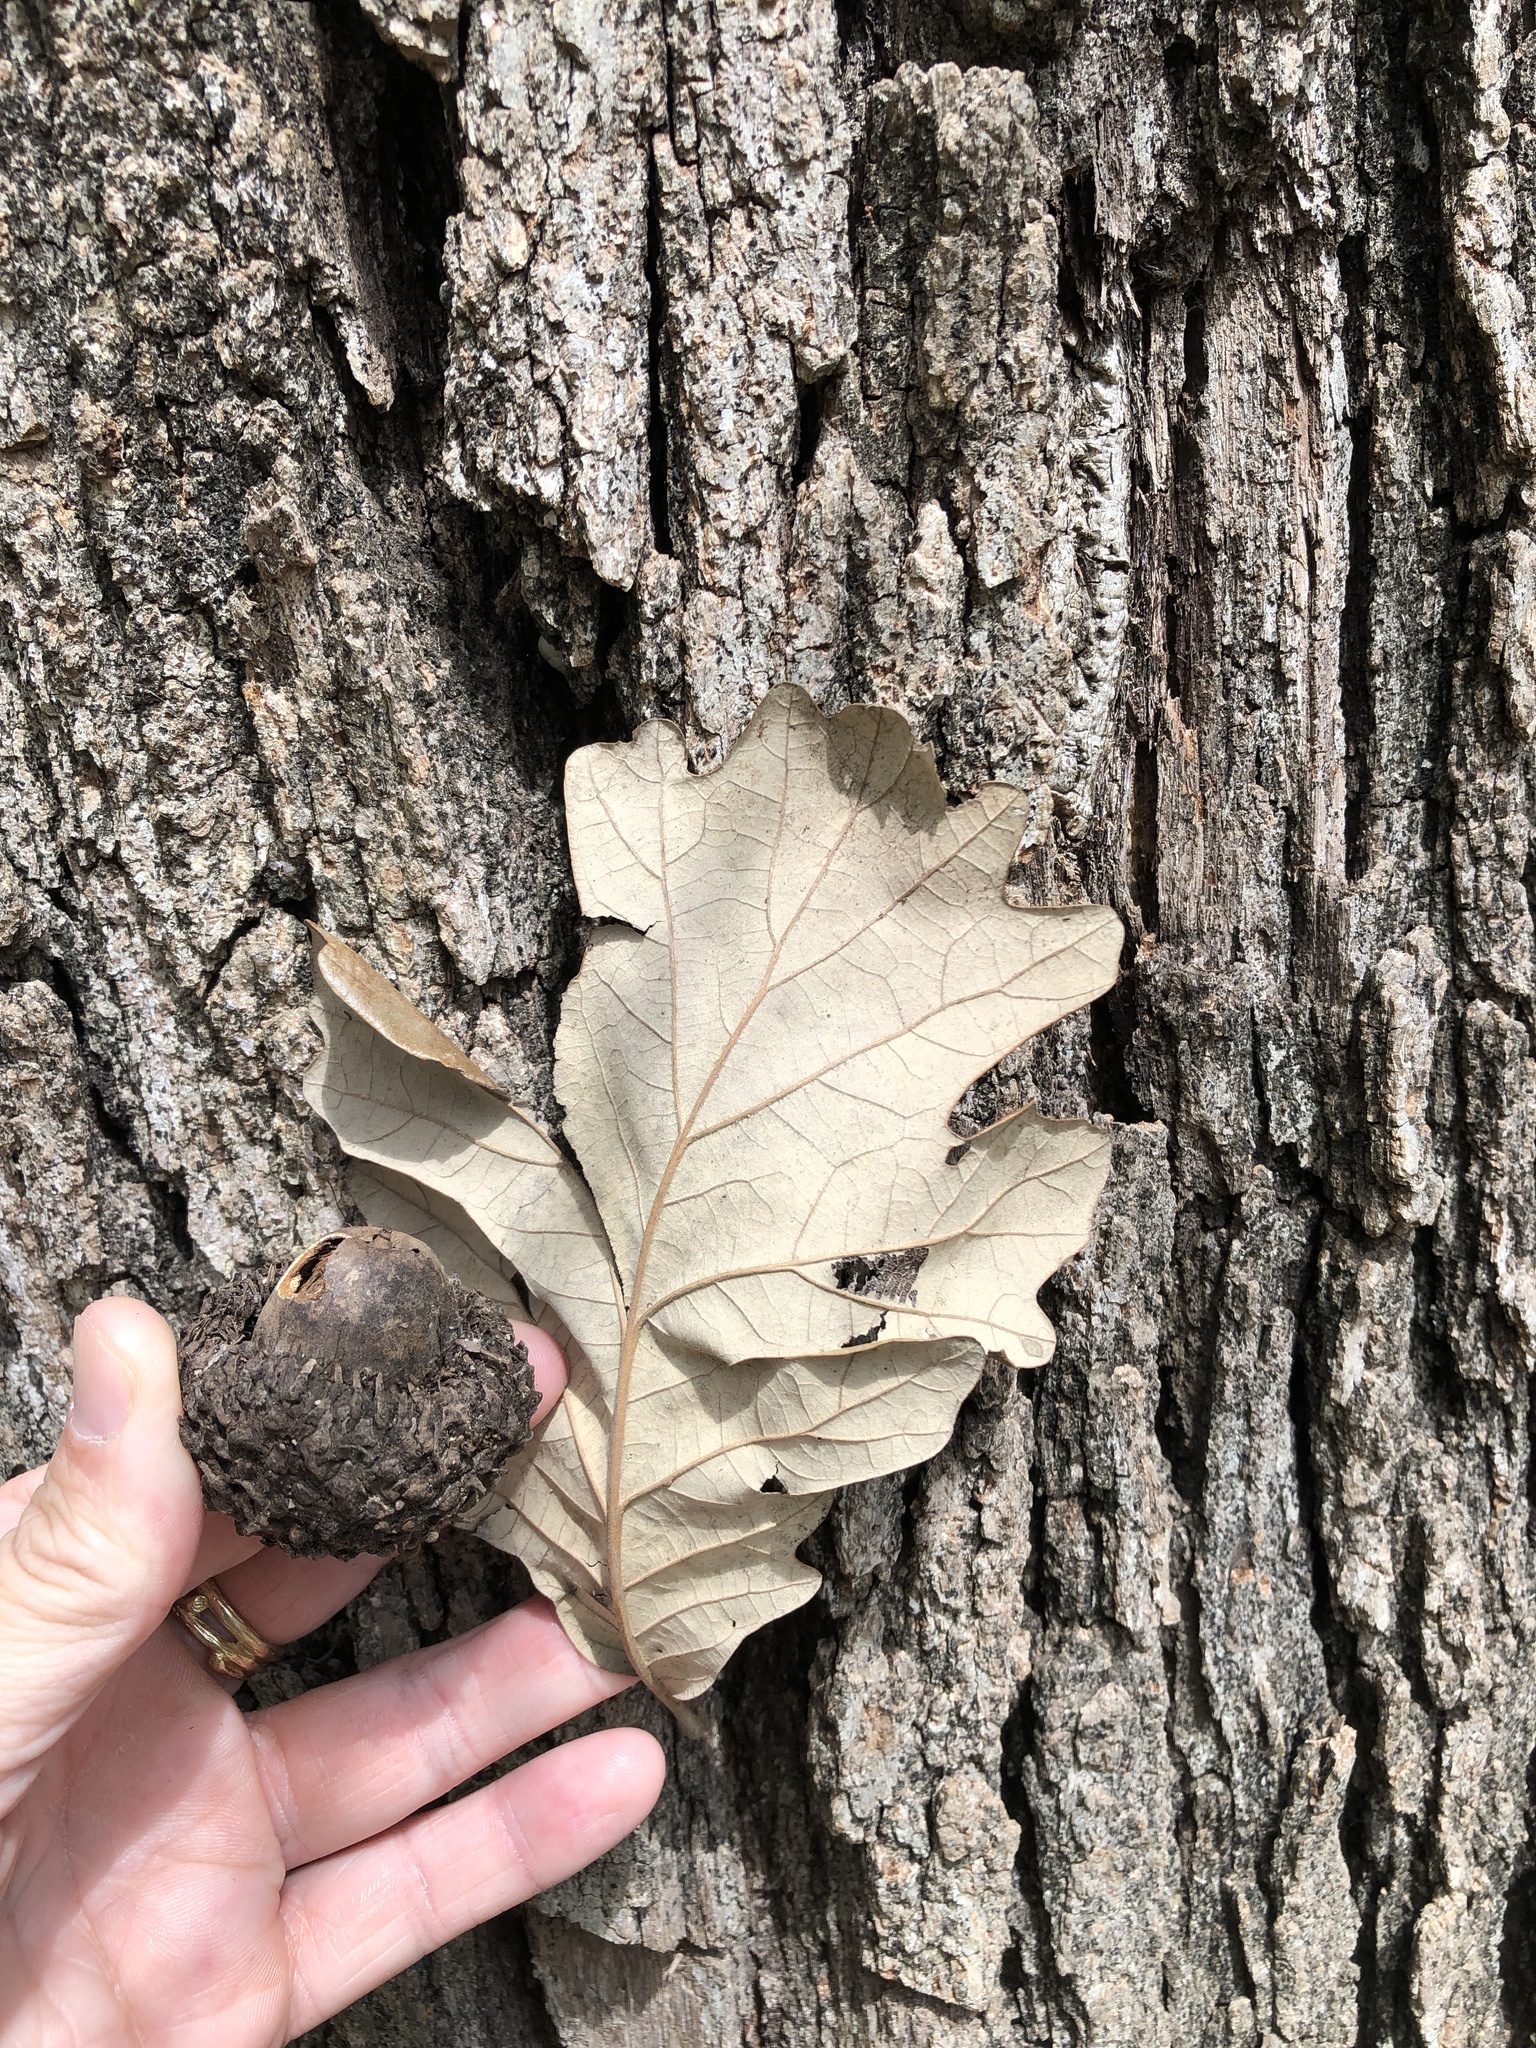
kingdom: Plantae
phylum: Tracheophyta
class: Magnoliopsida
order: Fagales
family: Fagaceae
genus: Quercus
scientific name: Quercus macrocarpa
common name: Bur oak
